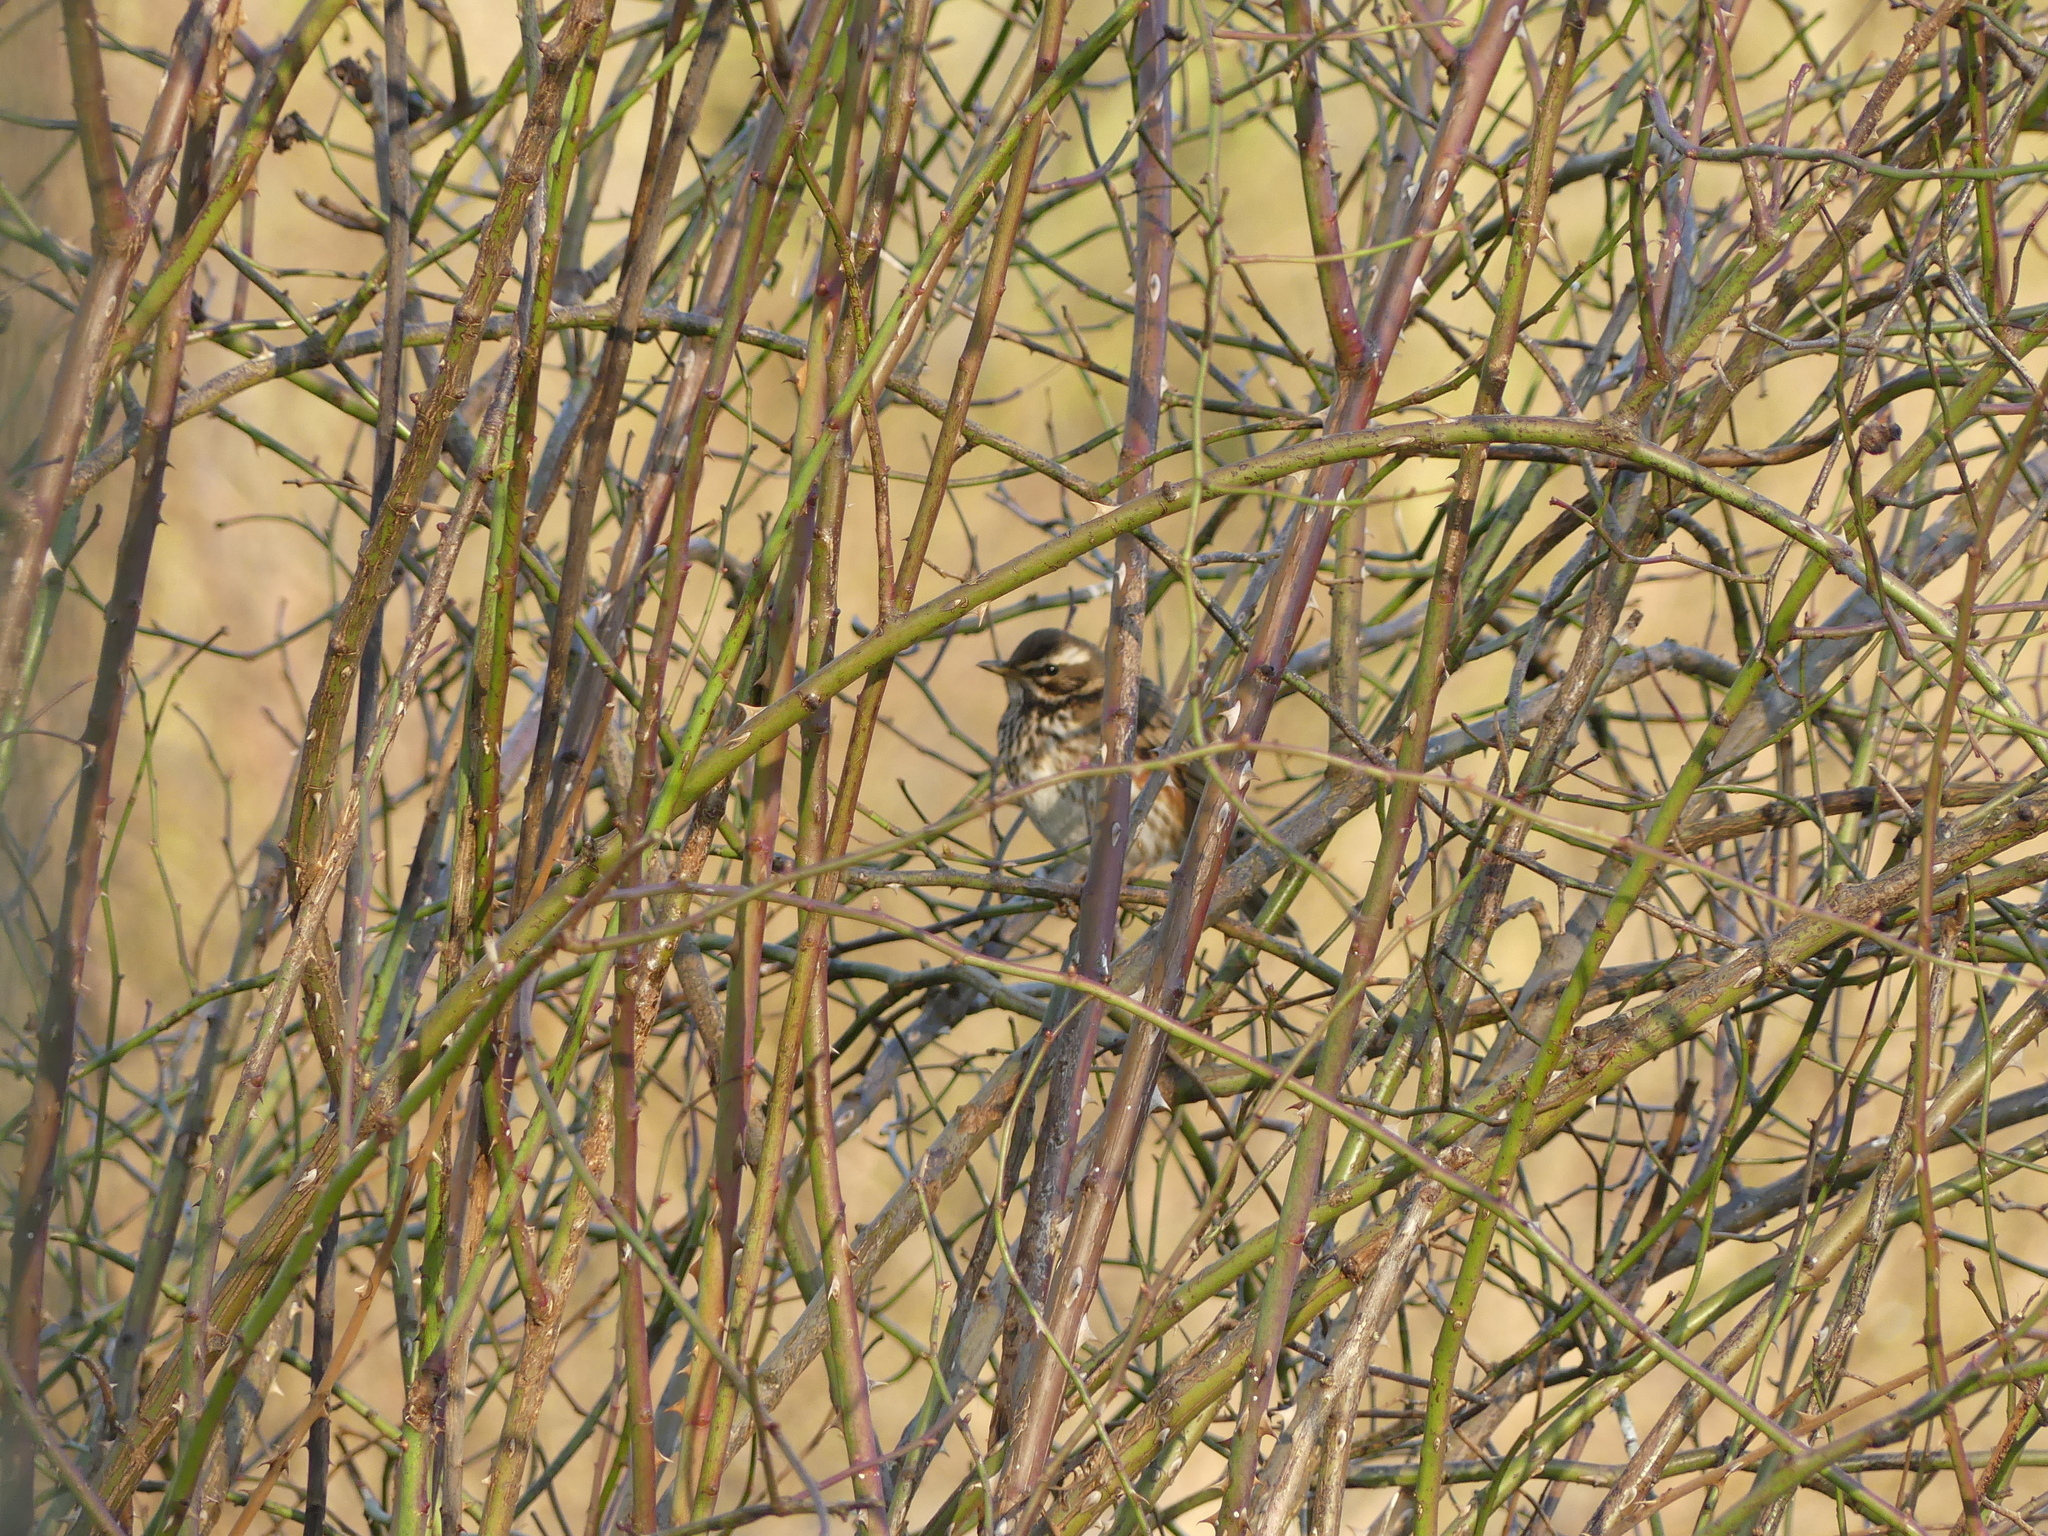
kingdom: Animalia
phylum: Chordata
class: Aves
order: Passeriformes
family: Turdidae
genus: Turdus
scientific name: Turdus iliacus
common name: Redwing
